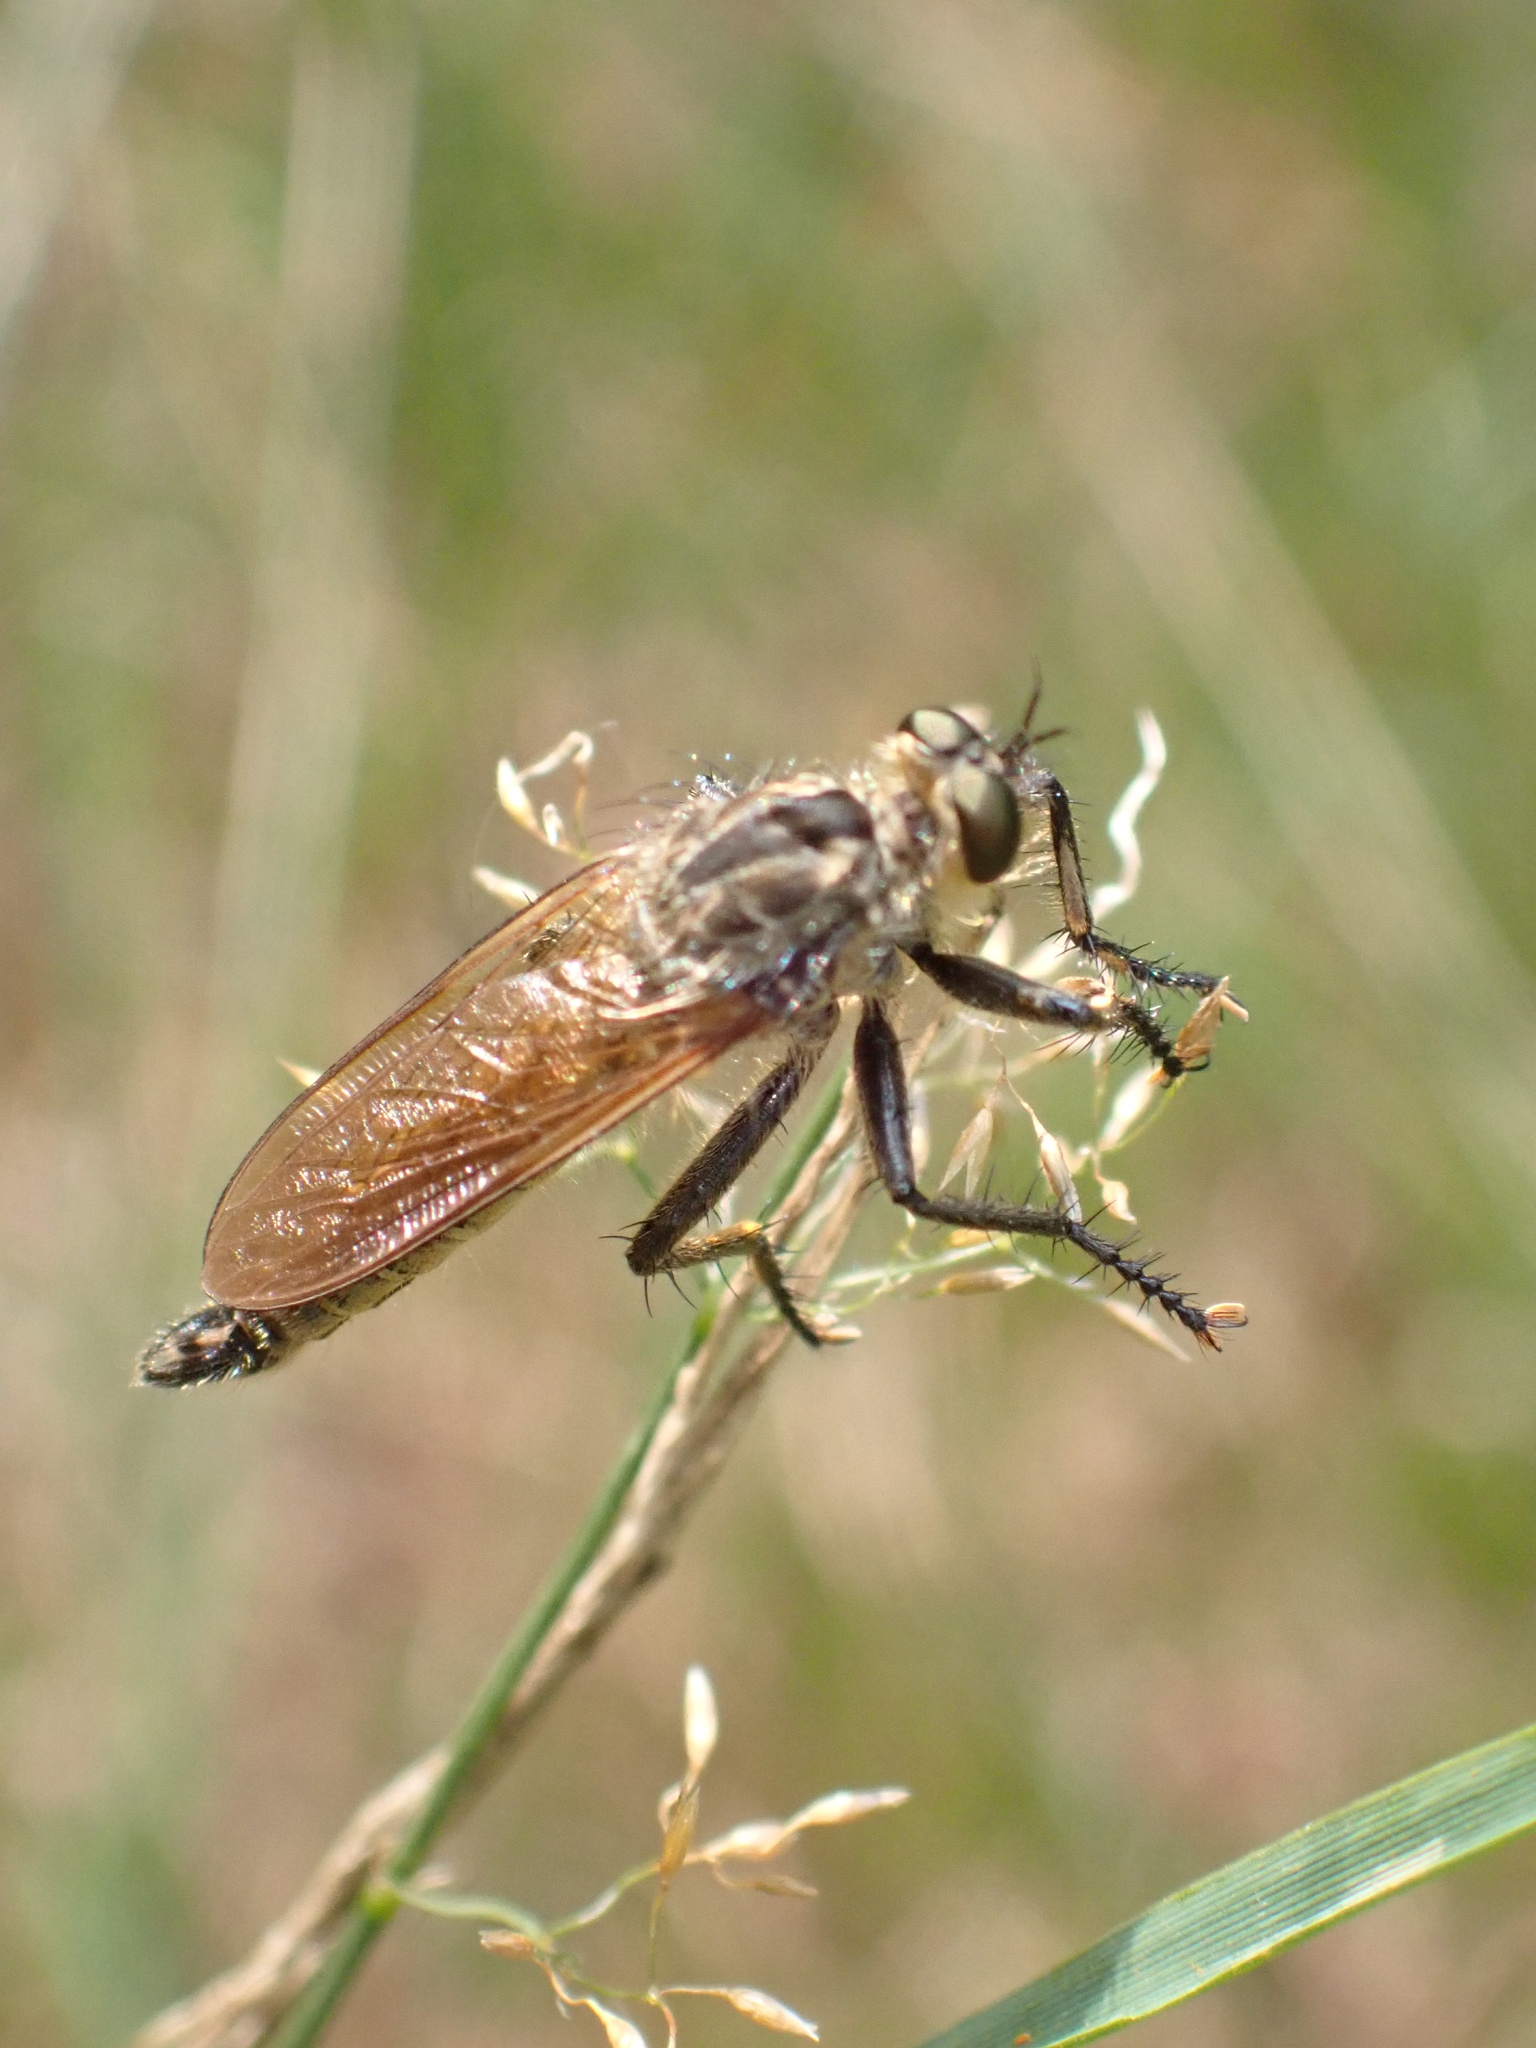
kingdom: Animalia
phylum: Arthropoda
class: Insecta
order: Diptera
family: Asilidae
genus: Eutolmus
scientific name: Eutolmus rufibarbis
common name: Golden-tabbed robberfly
